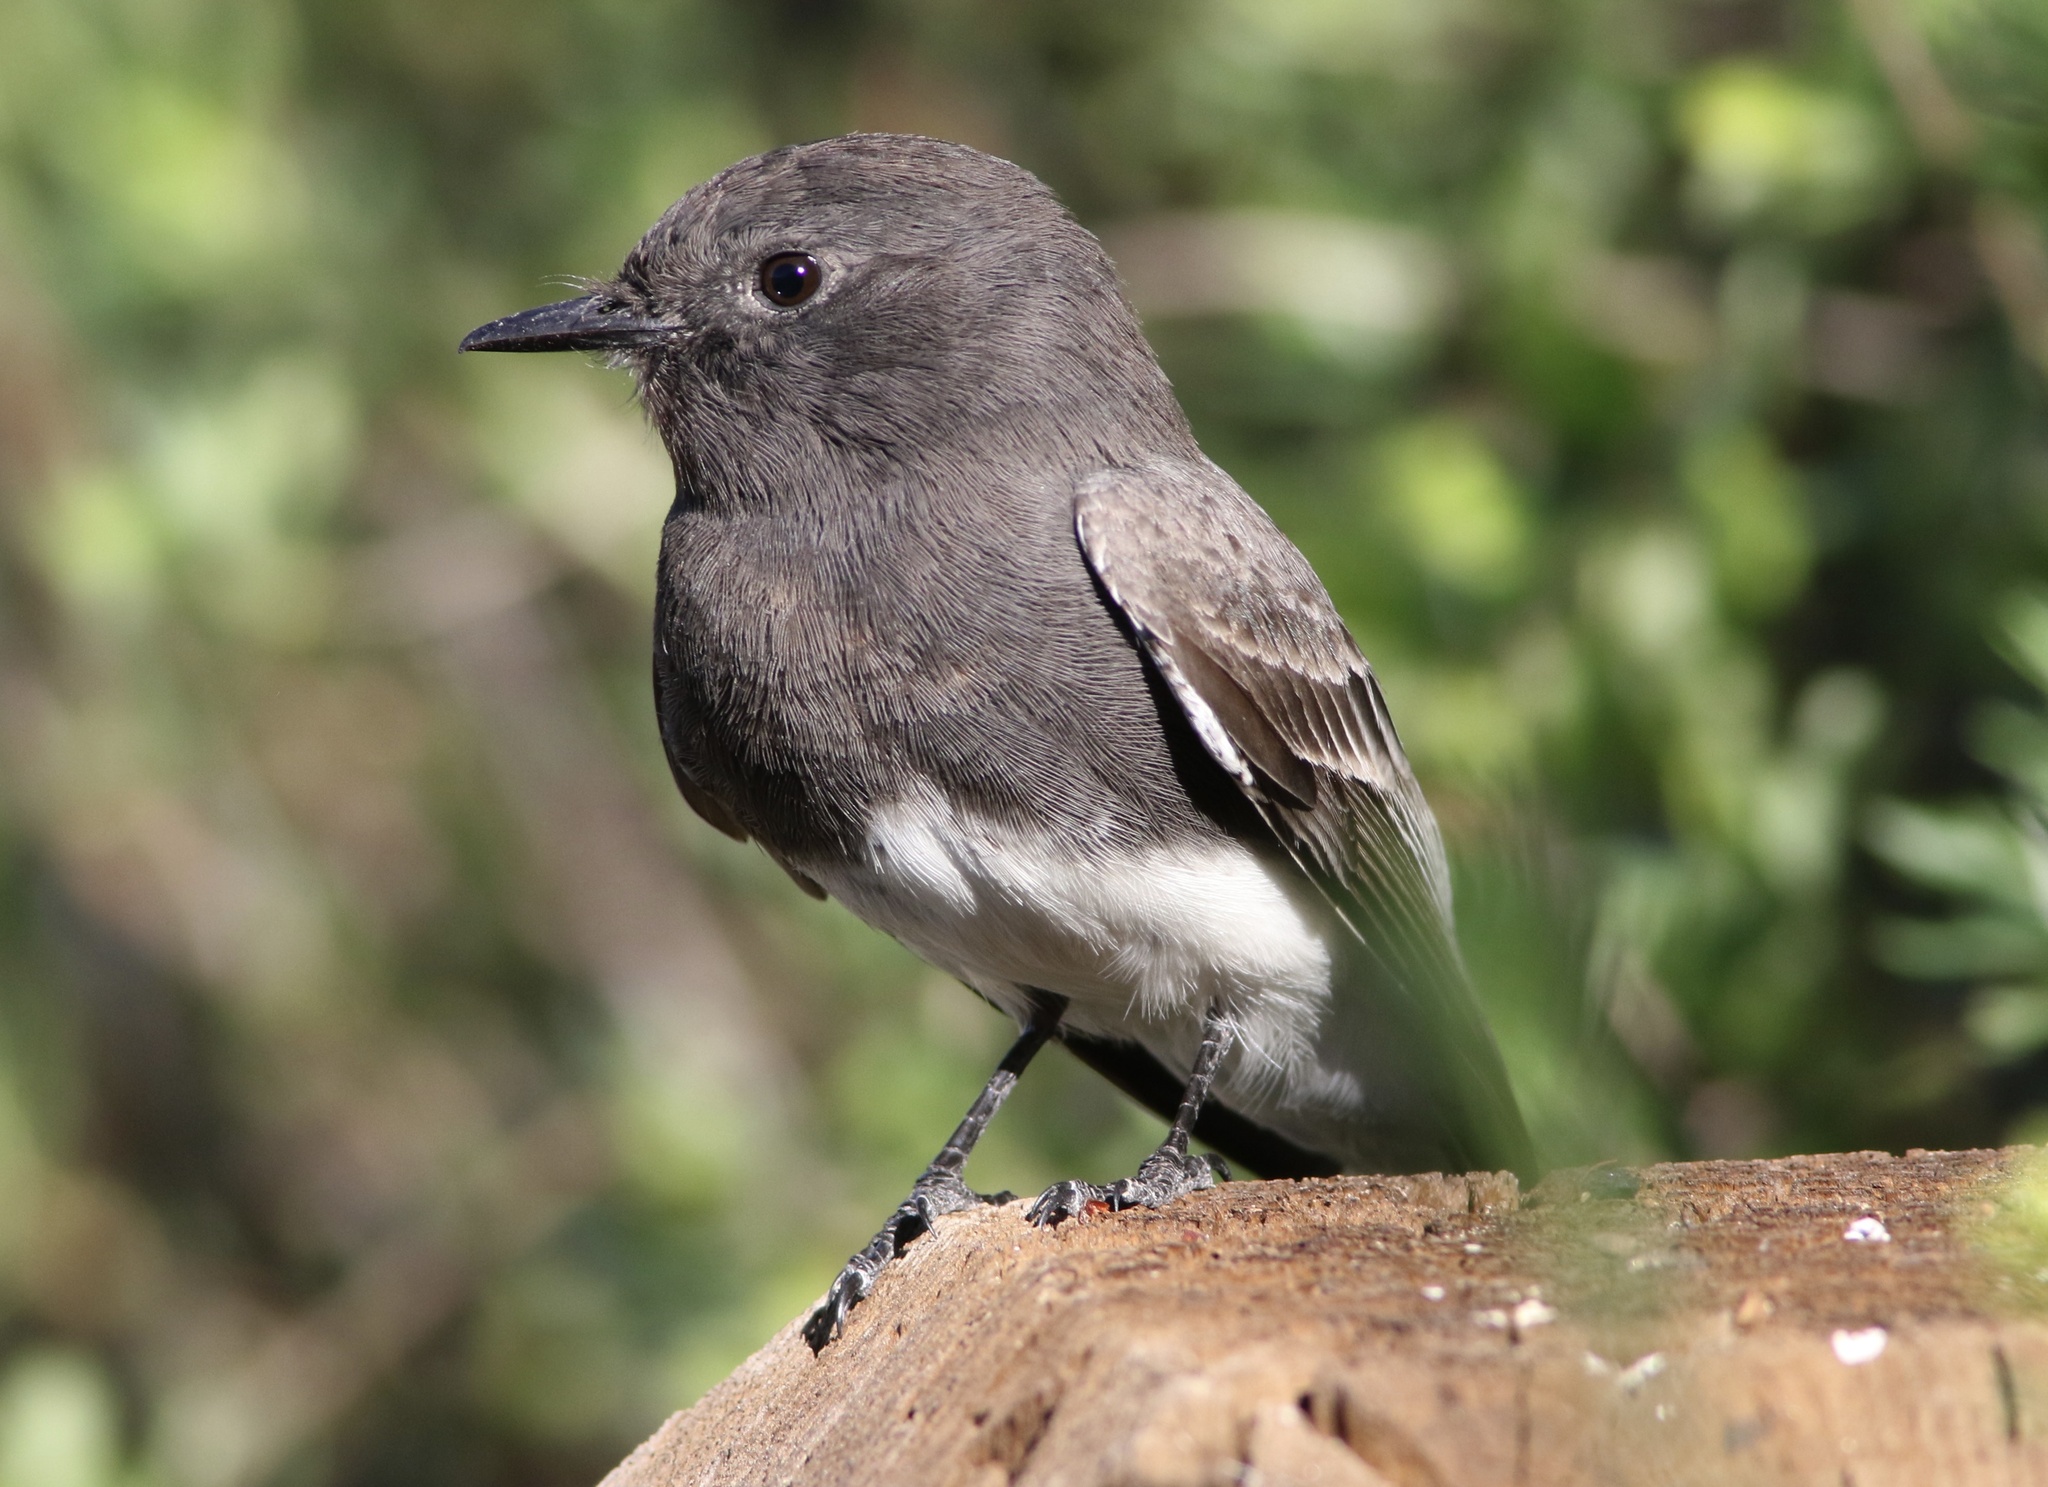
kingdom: Animalia
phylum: Chordata
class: Aves
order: Passeriformes
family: Tyrannidae
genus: Sayornis
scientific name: Sayornis nigricans
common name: Black phoebe
